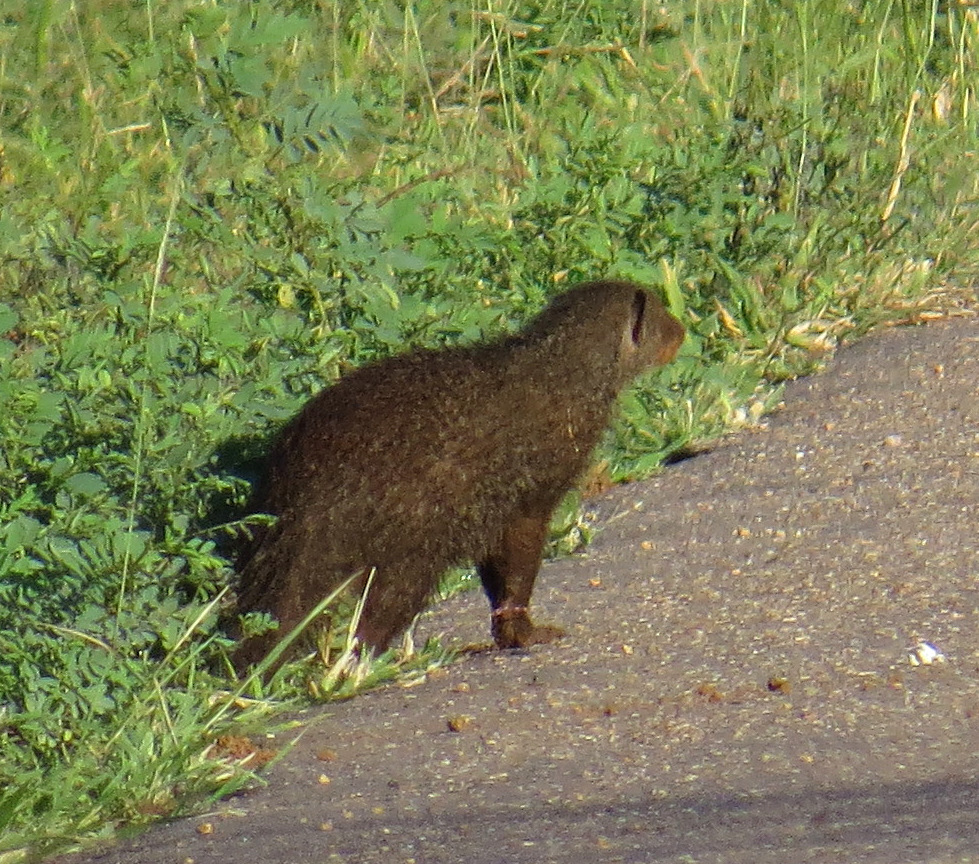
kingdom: Animalia
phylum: Chordata
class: Mammalia
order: Carnivora
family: Herpestidae
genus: Helogale
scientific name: Helogale parvula
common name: Common dwarf mongoose
